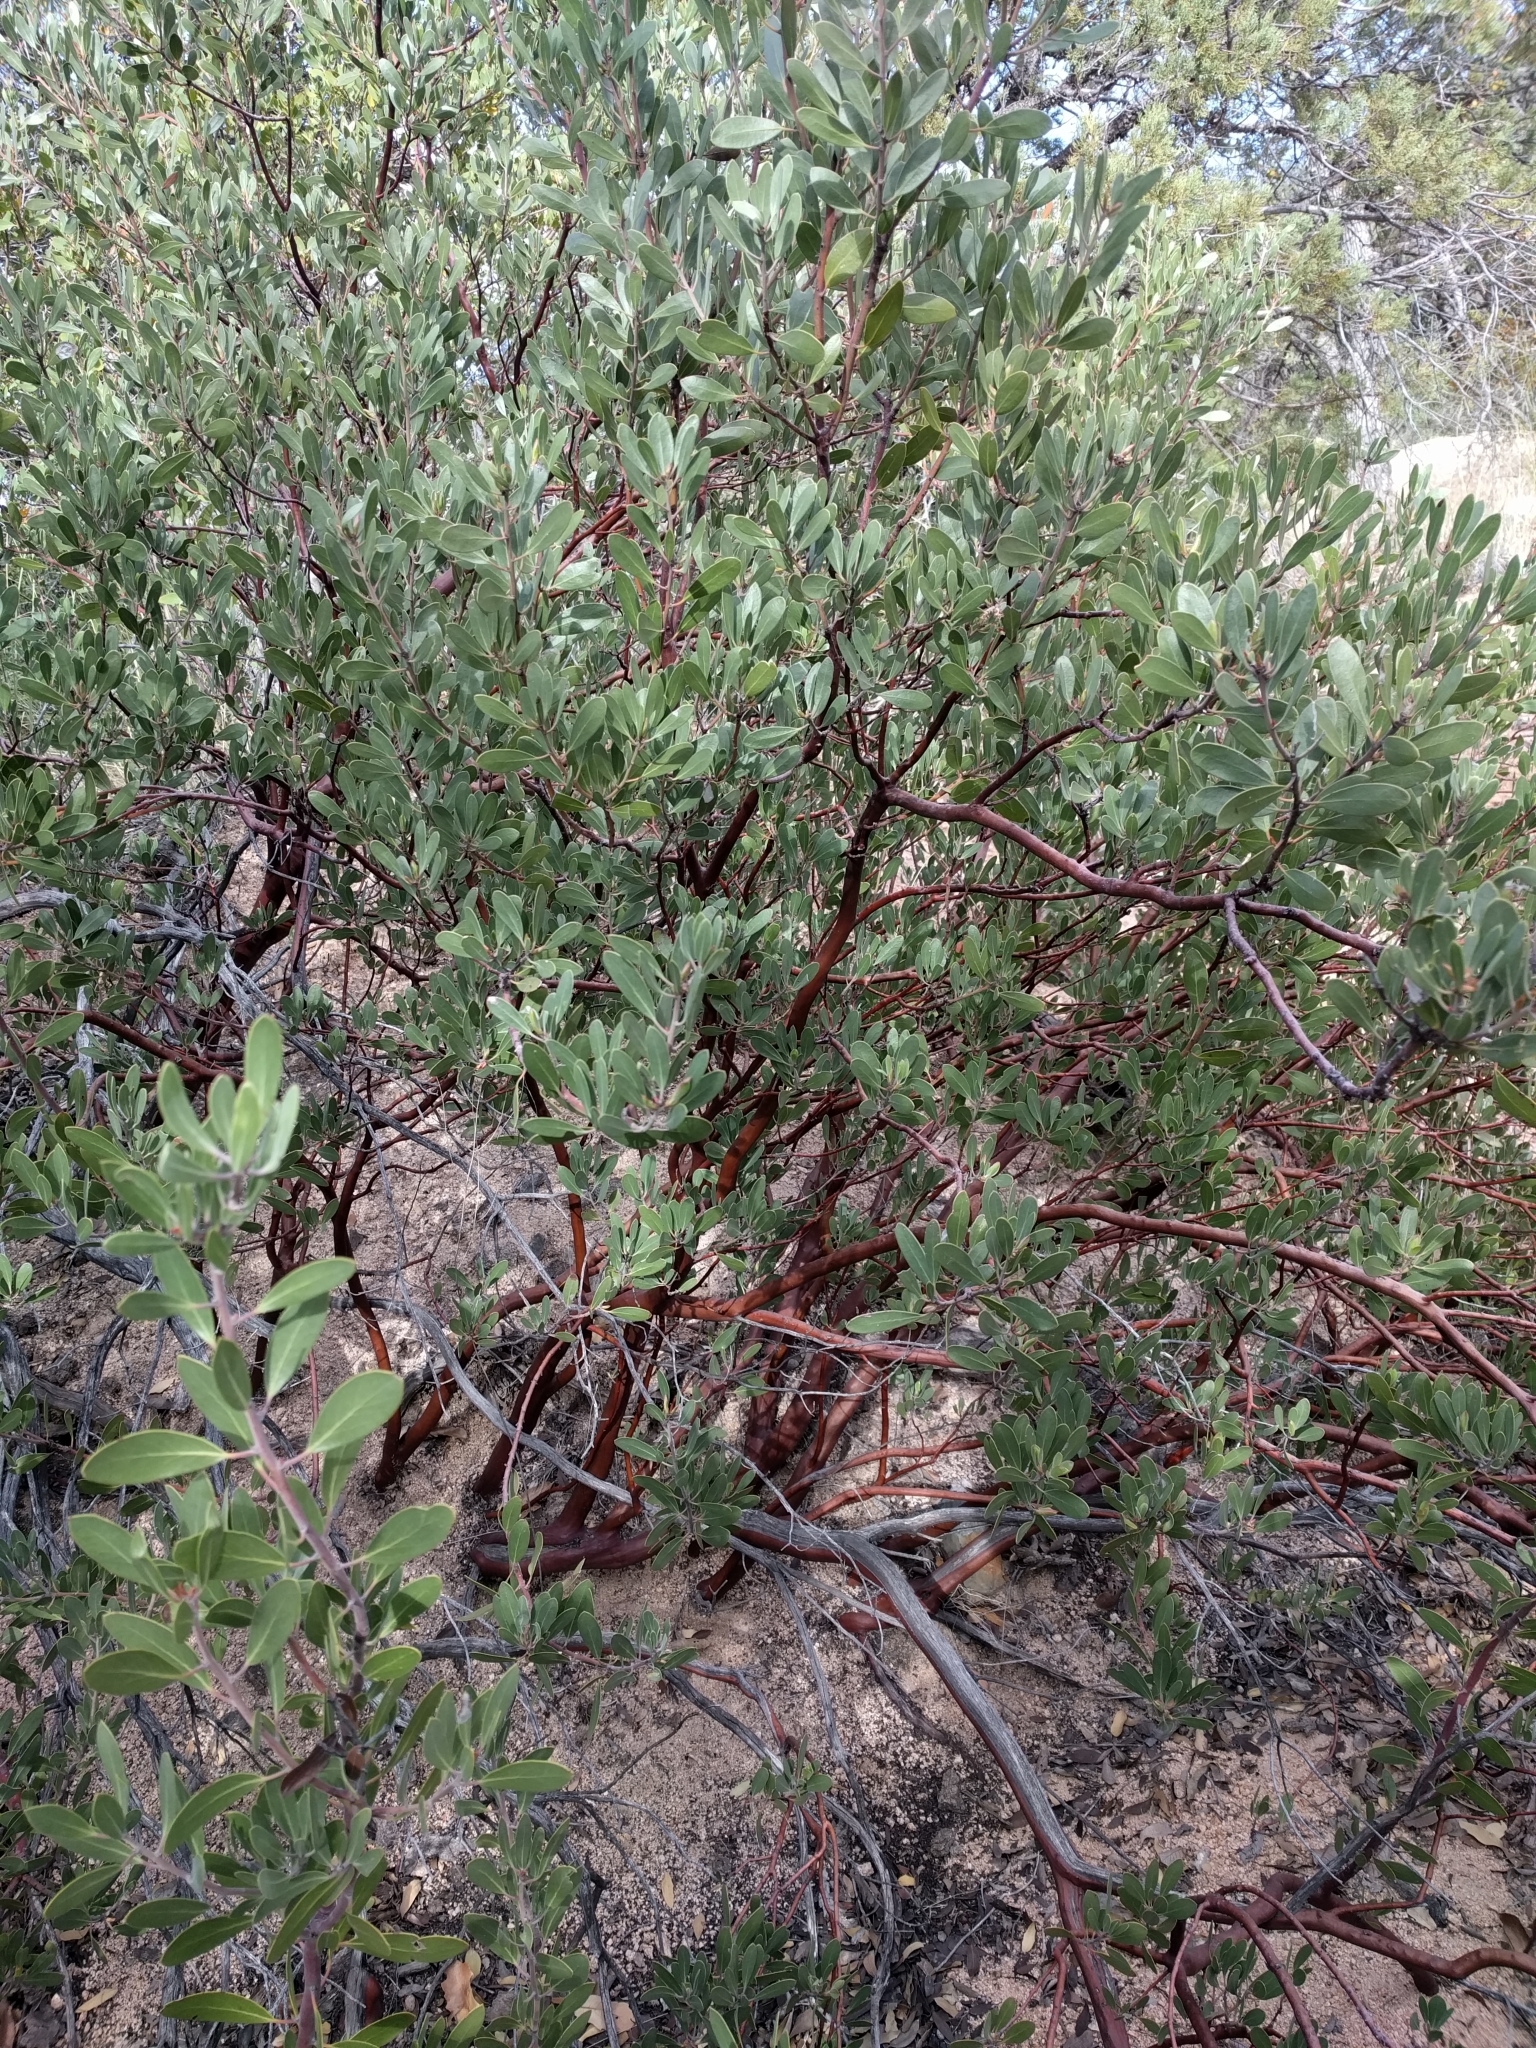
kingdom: Plantae
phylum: Tracheophyta
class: Magnoliopsida
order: Ericales
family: Ericaceae
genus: Arctostaphylos
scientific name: Arctostaphylos pungens
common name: Mexican manzanita
